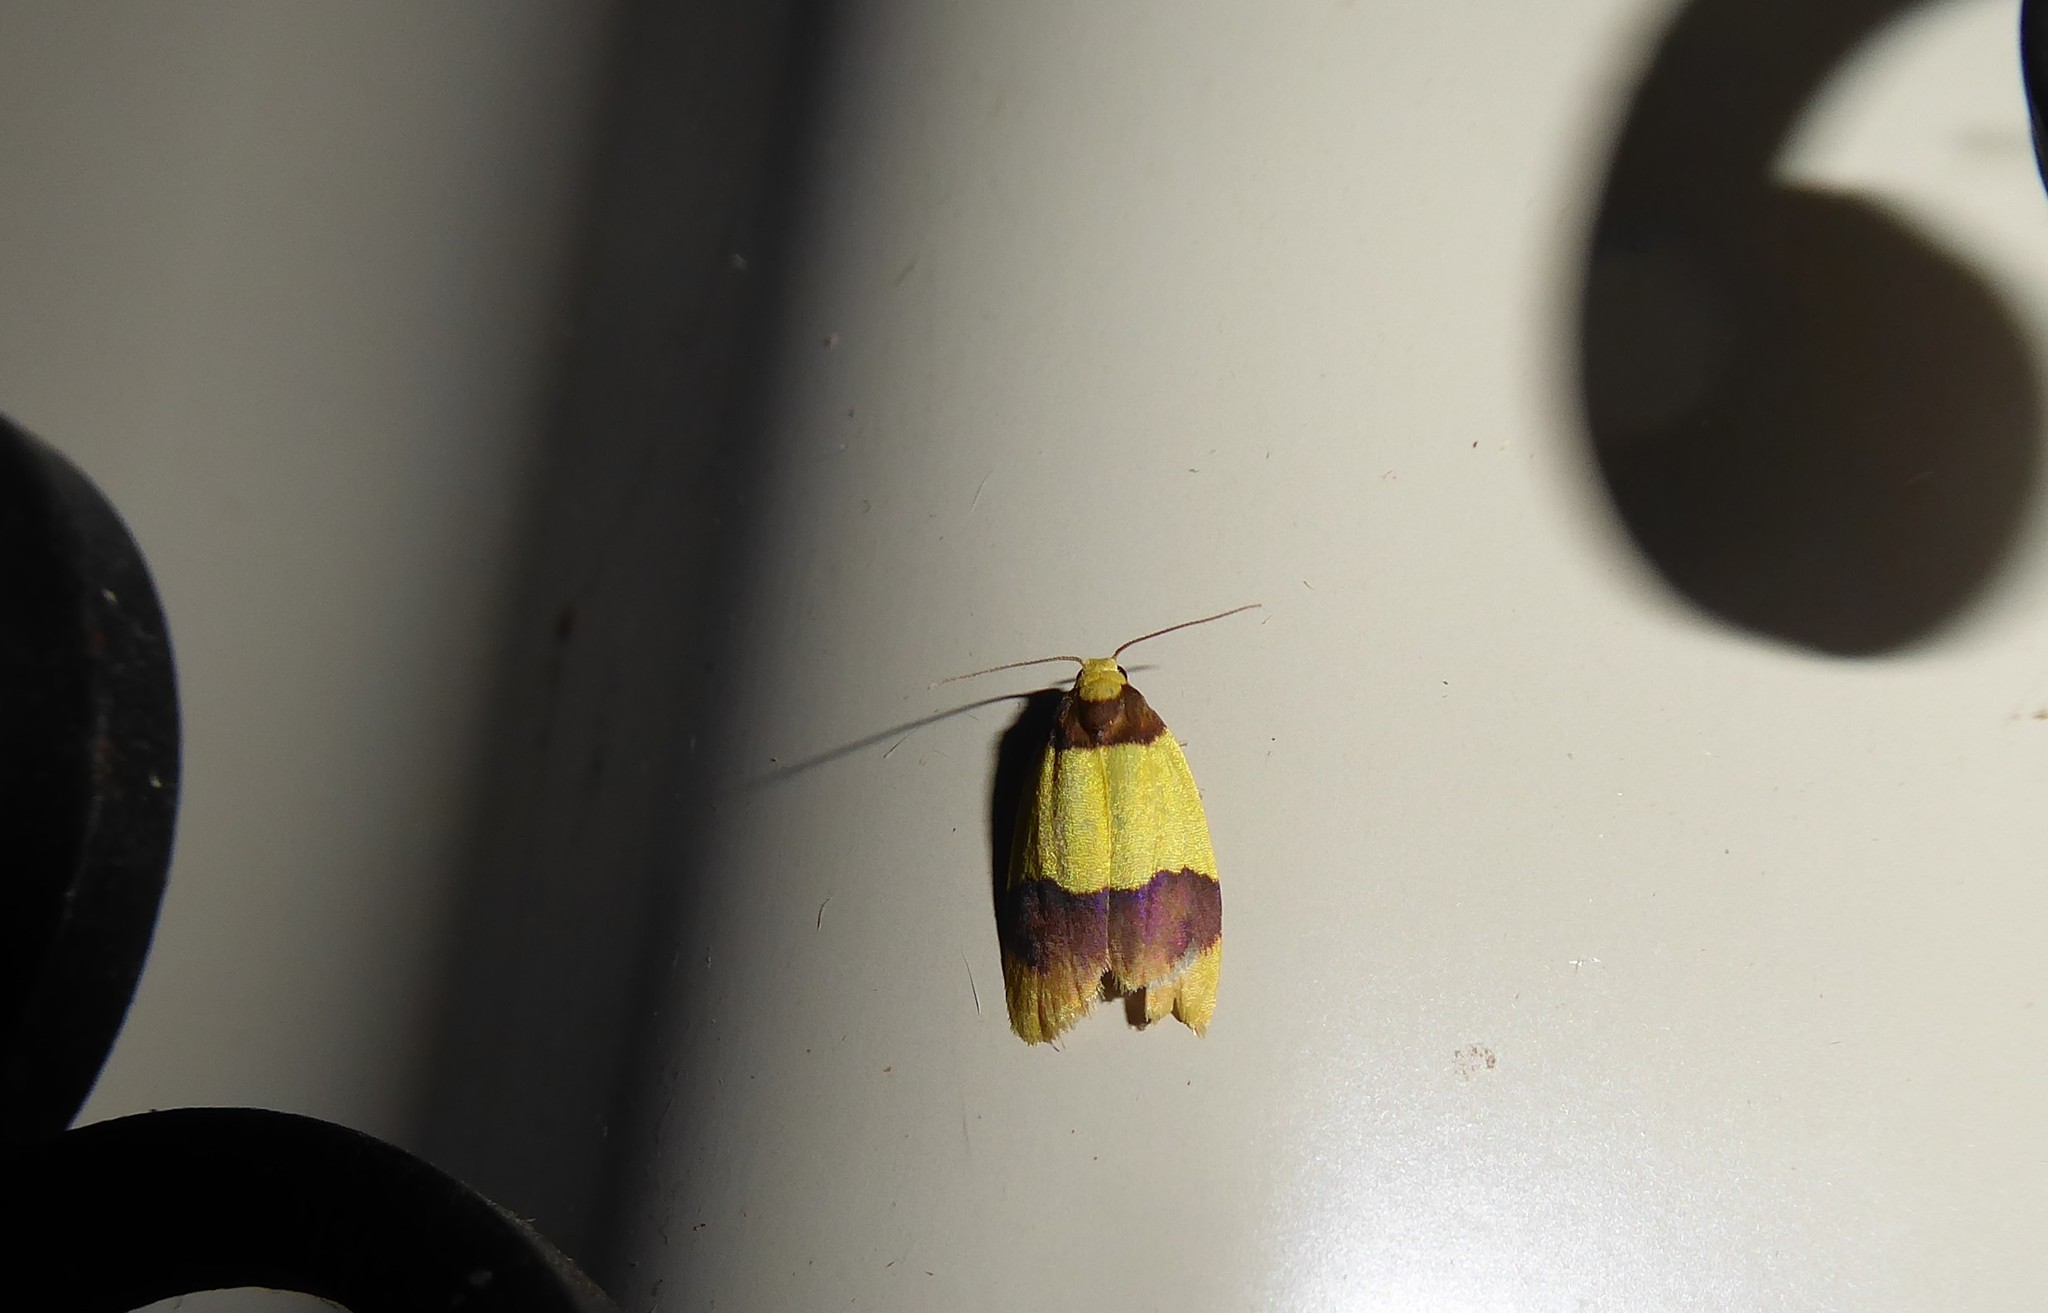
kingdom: Animalia
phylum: Arthropoda
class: Insecta
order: Lepidoptera
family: Erebidae
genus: Heterallactis
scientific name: Heterallactis euchrysa
